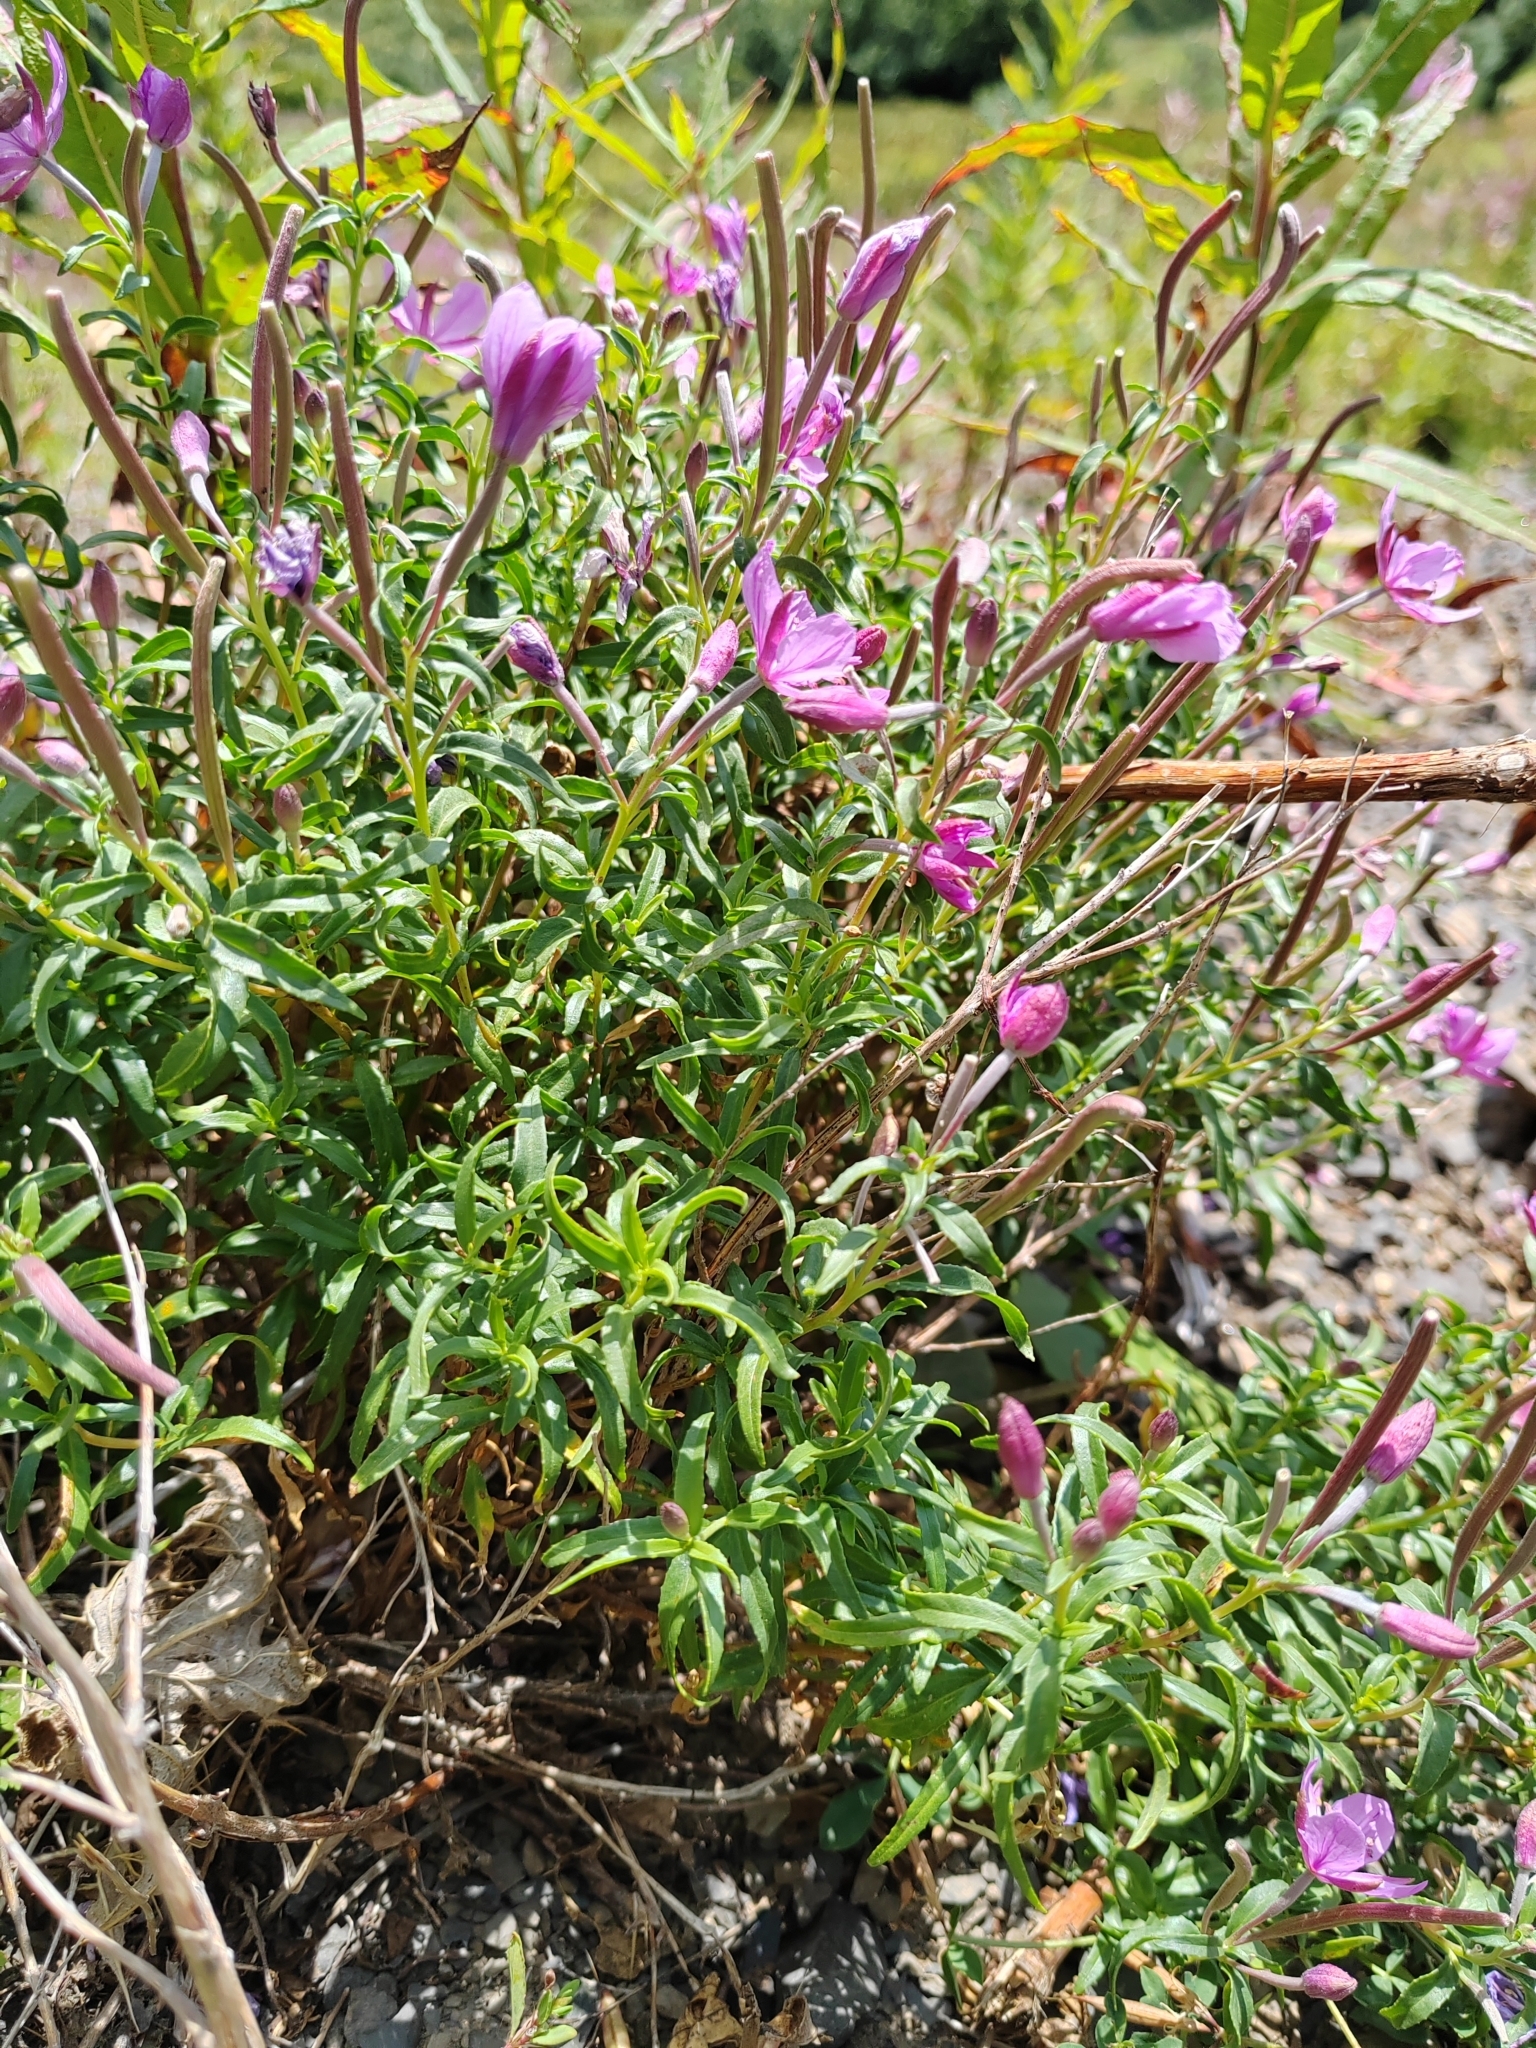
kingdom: Plantae
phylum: Tracheophyta
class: Magnoliopsida
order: Myrtales
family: Onagraceae
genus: Chamaenerion
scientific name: Chamaenerion colchicum
